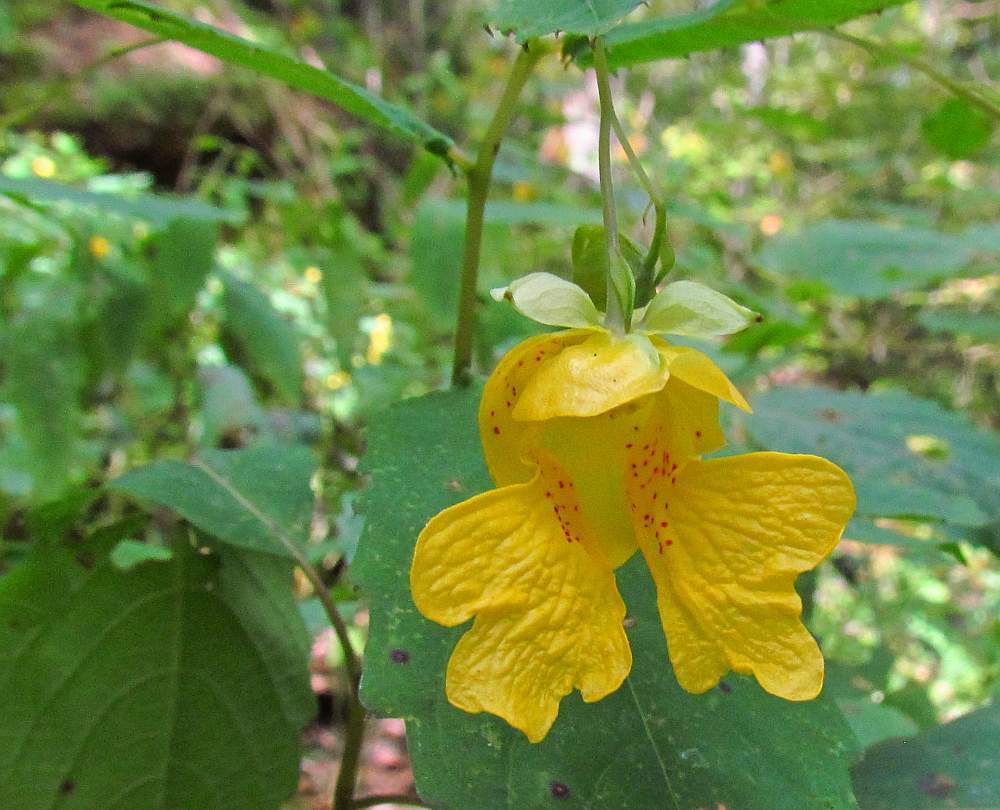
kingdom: Plantae
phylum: Tracheophyta
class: Magnoliopsida
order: Ericales
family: Balsaminaceae
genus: Impatiens
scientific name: Impatiens pallida
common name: Pale snapweed
